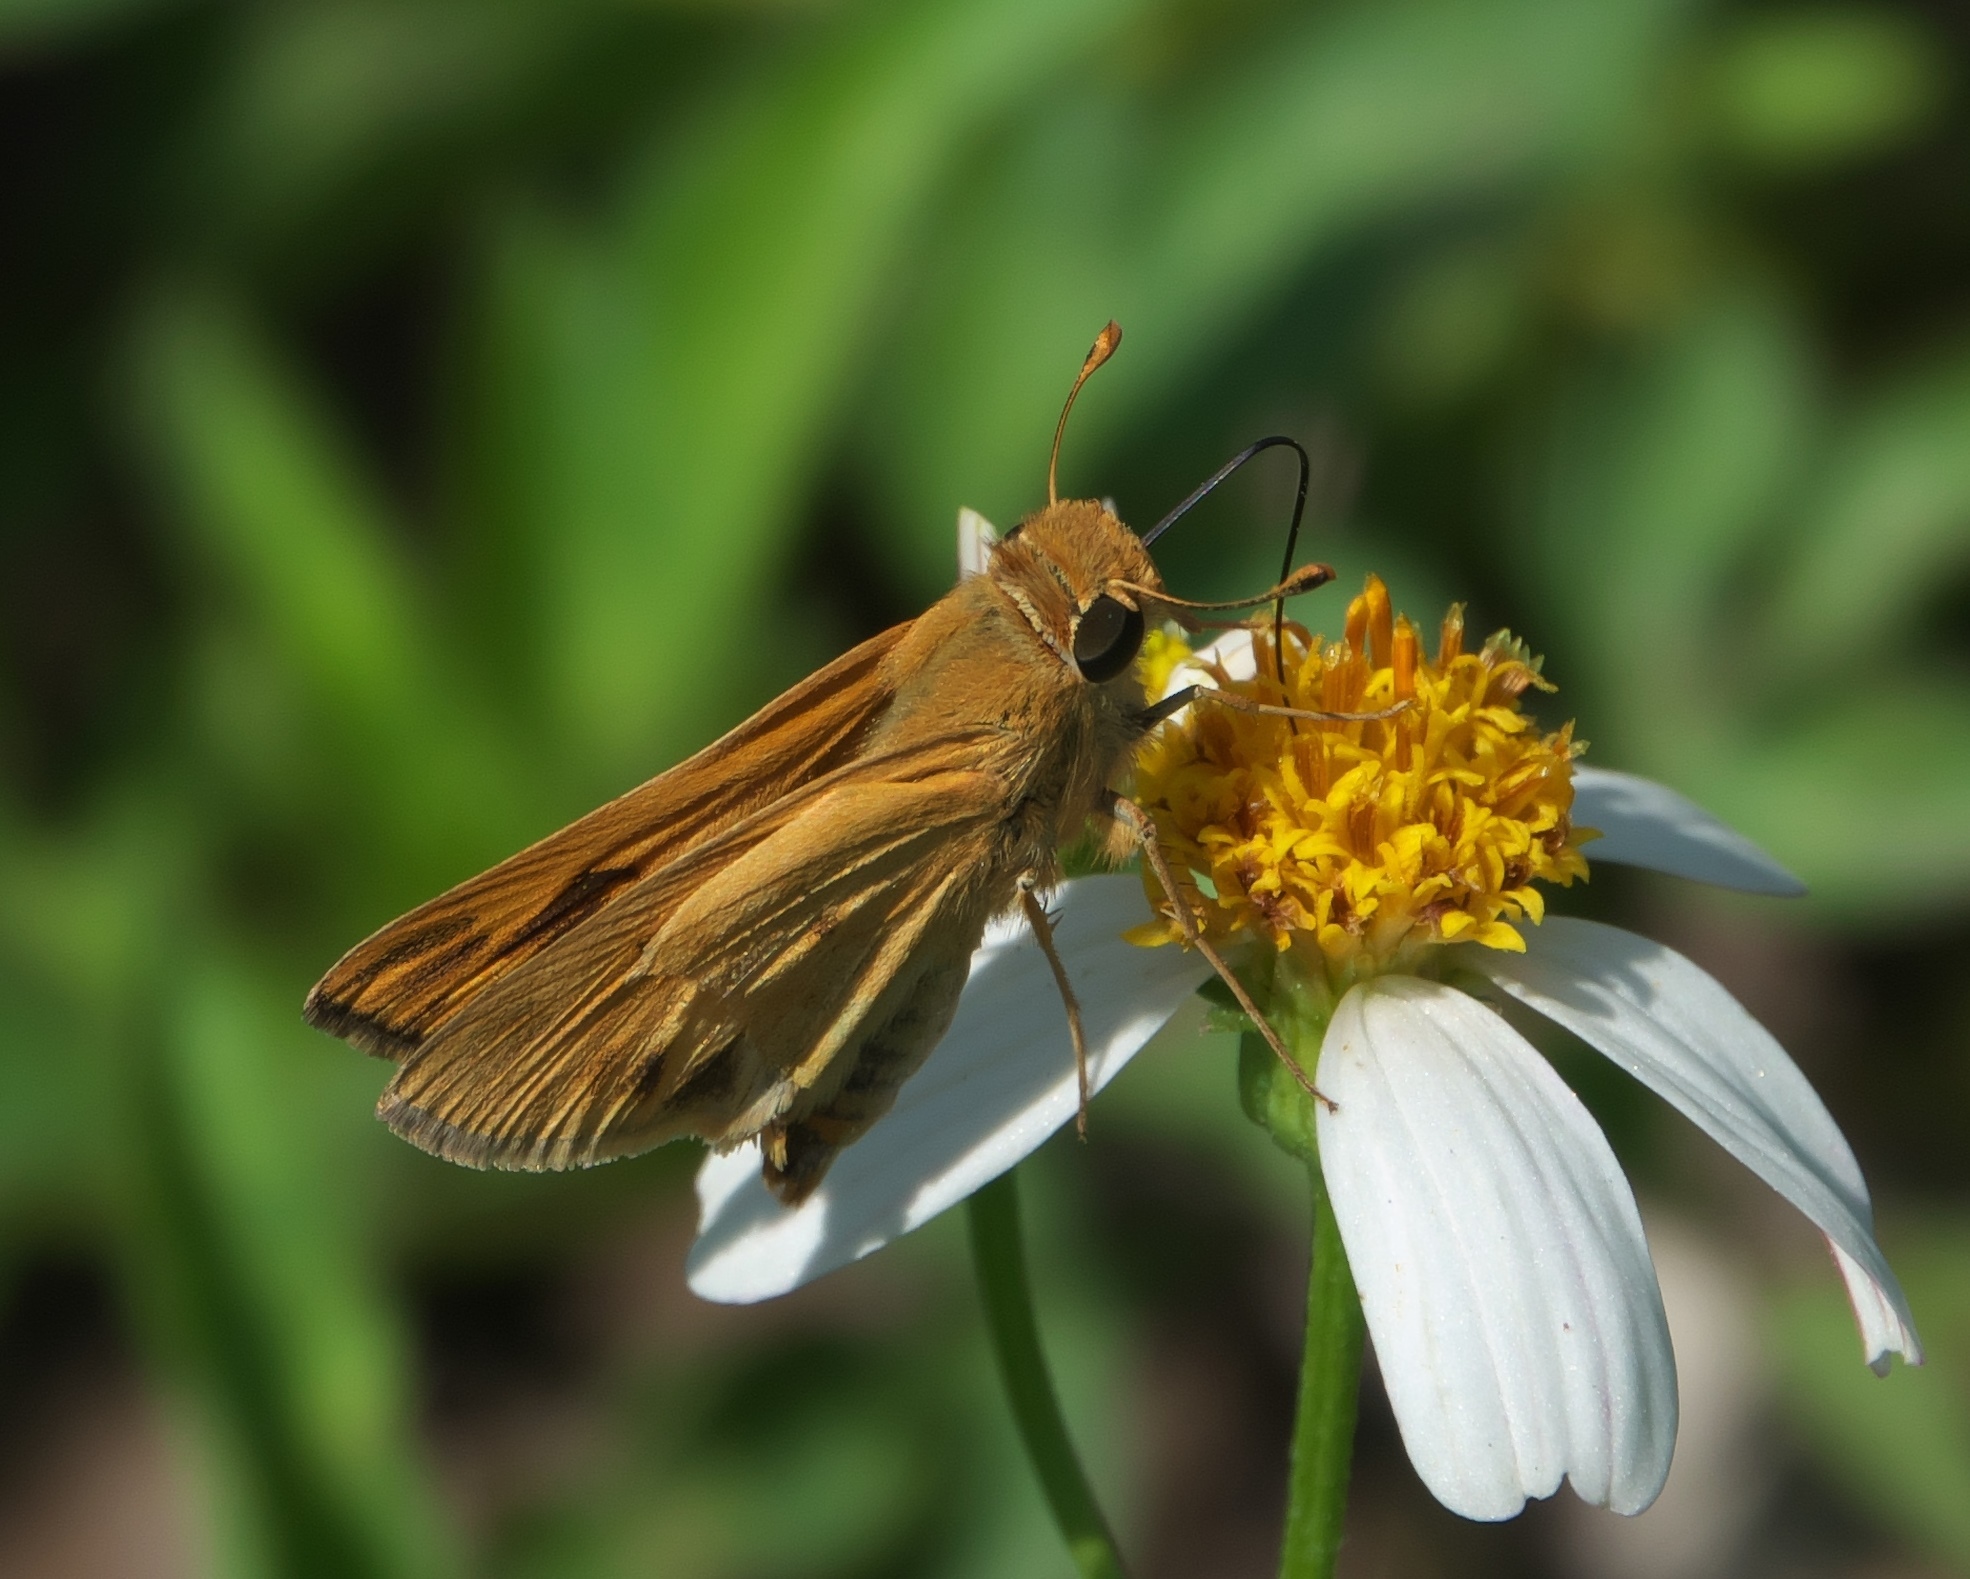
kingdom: Animalia
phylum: Arthropoda
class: Insecta
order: Lepidoptera
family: Hesperiidae
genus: Hylephila
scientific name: Hylephila phyleus
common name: Fiery skipper
